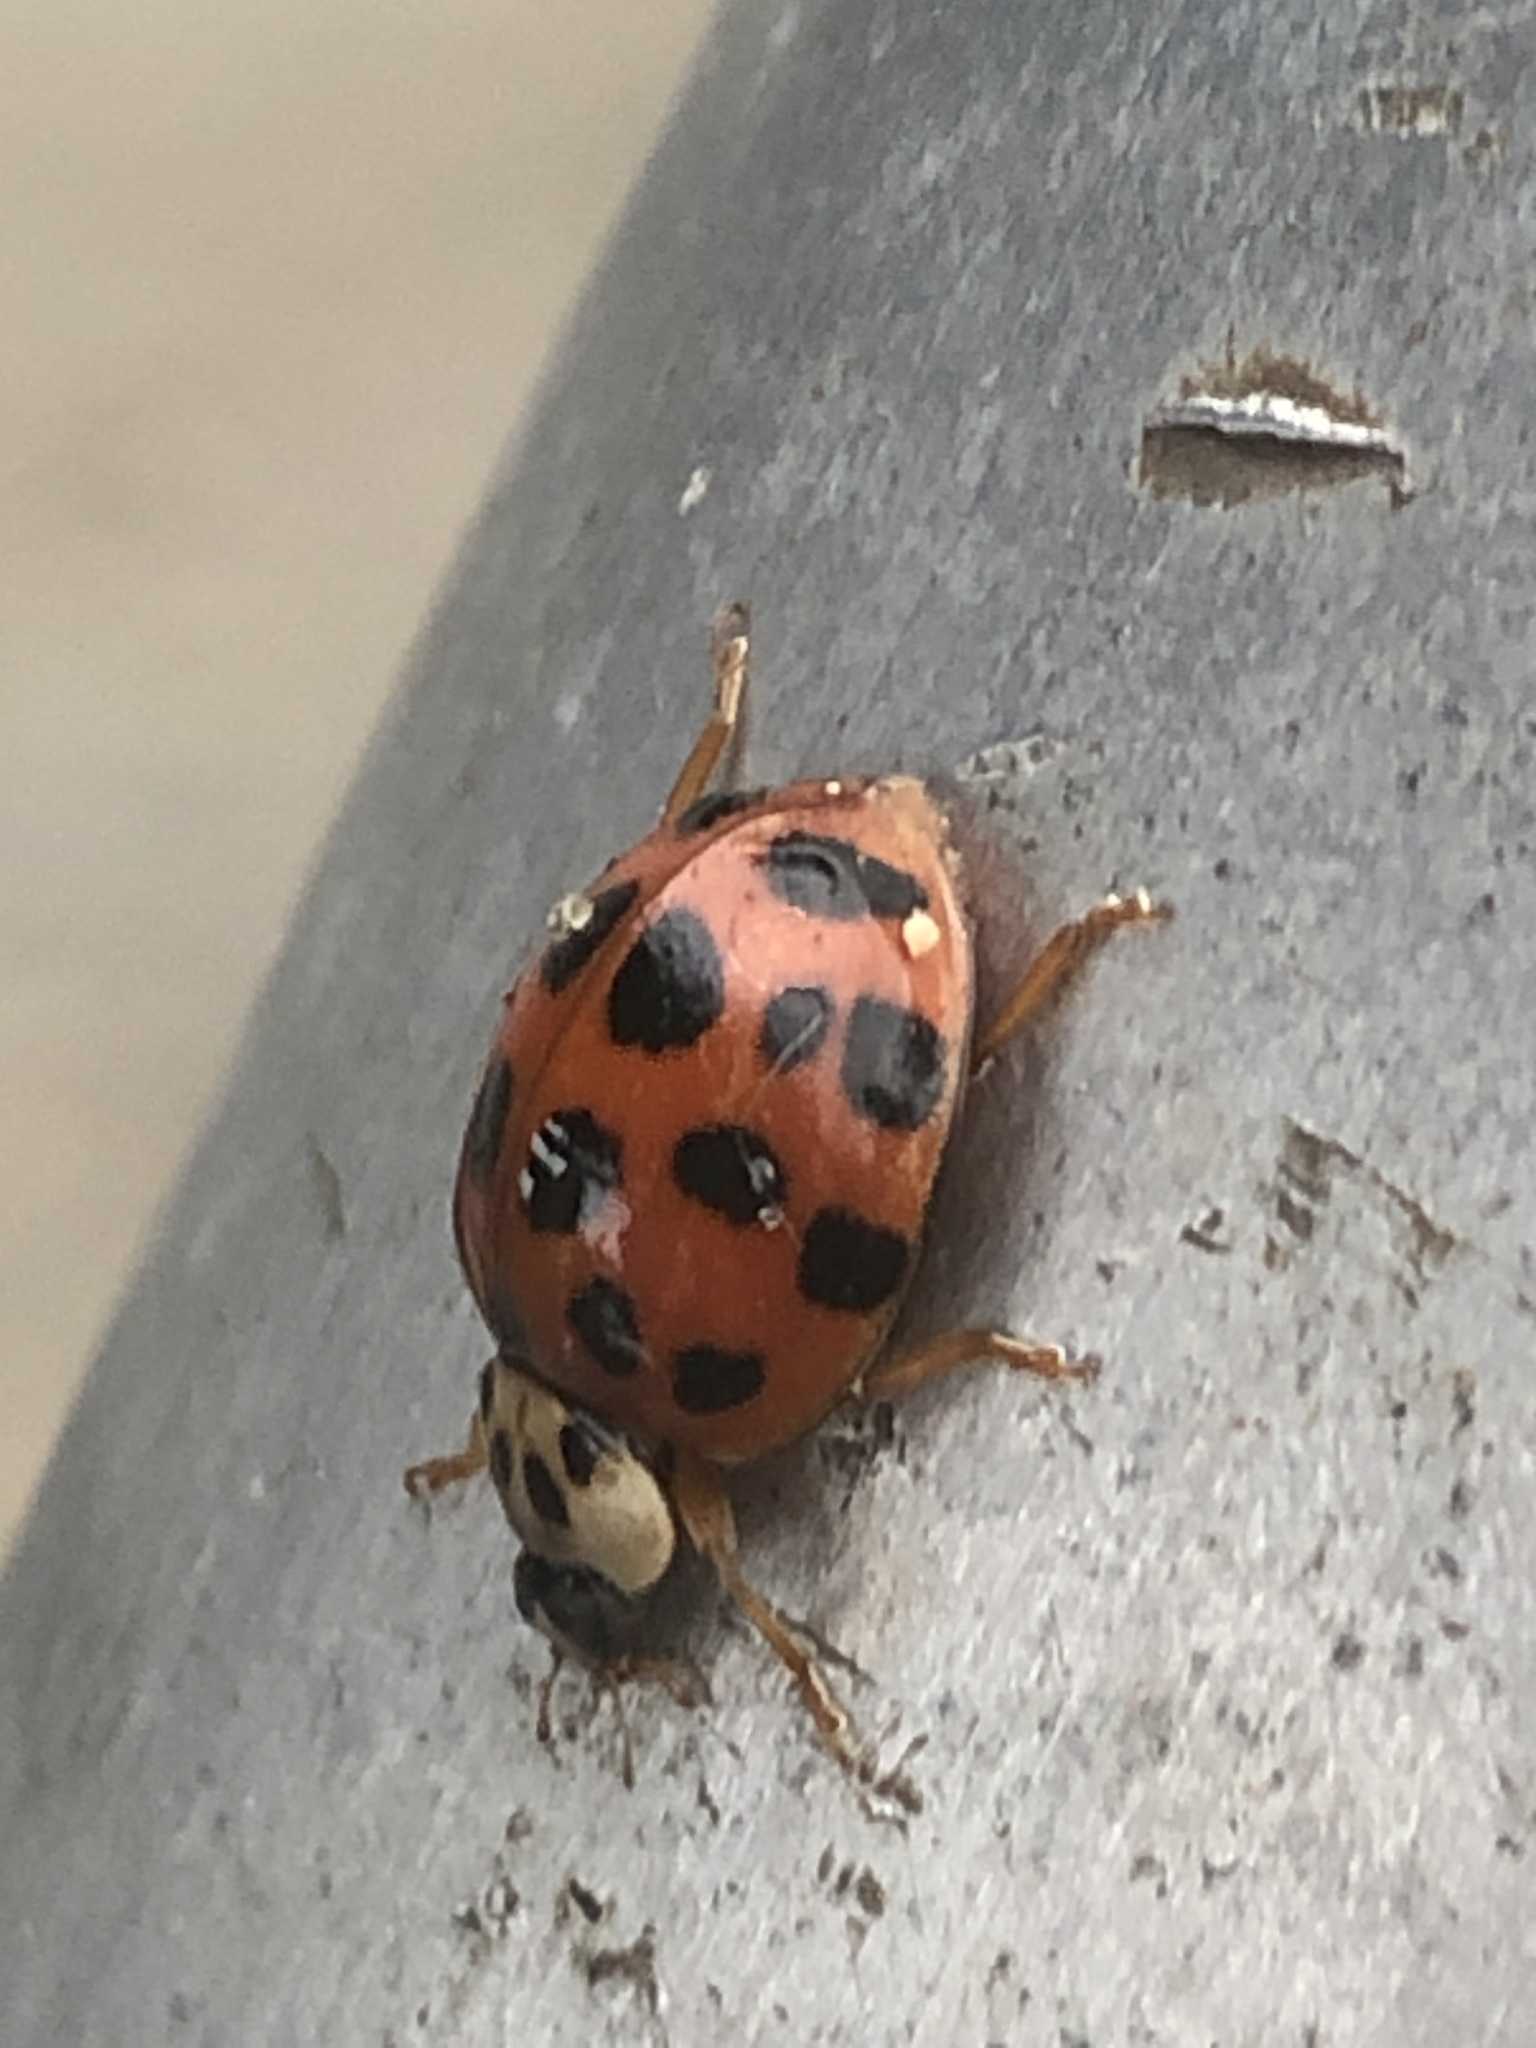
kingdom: Animalia
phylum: Arthropoda
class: Insecta
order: Coleoptera
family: Coccinellidae
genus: Harmonia
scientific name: Harmonia axyridis
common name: Harlequin ladybird
